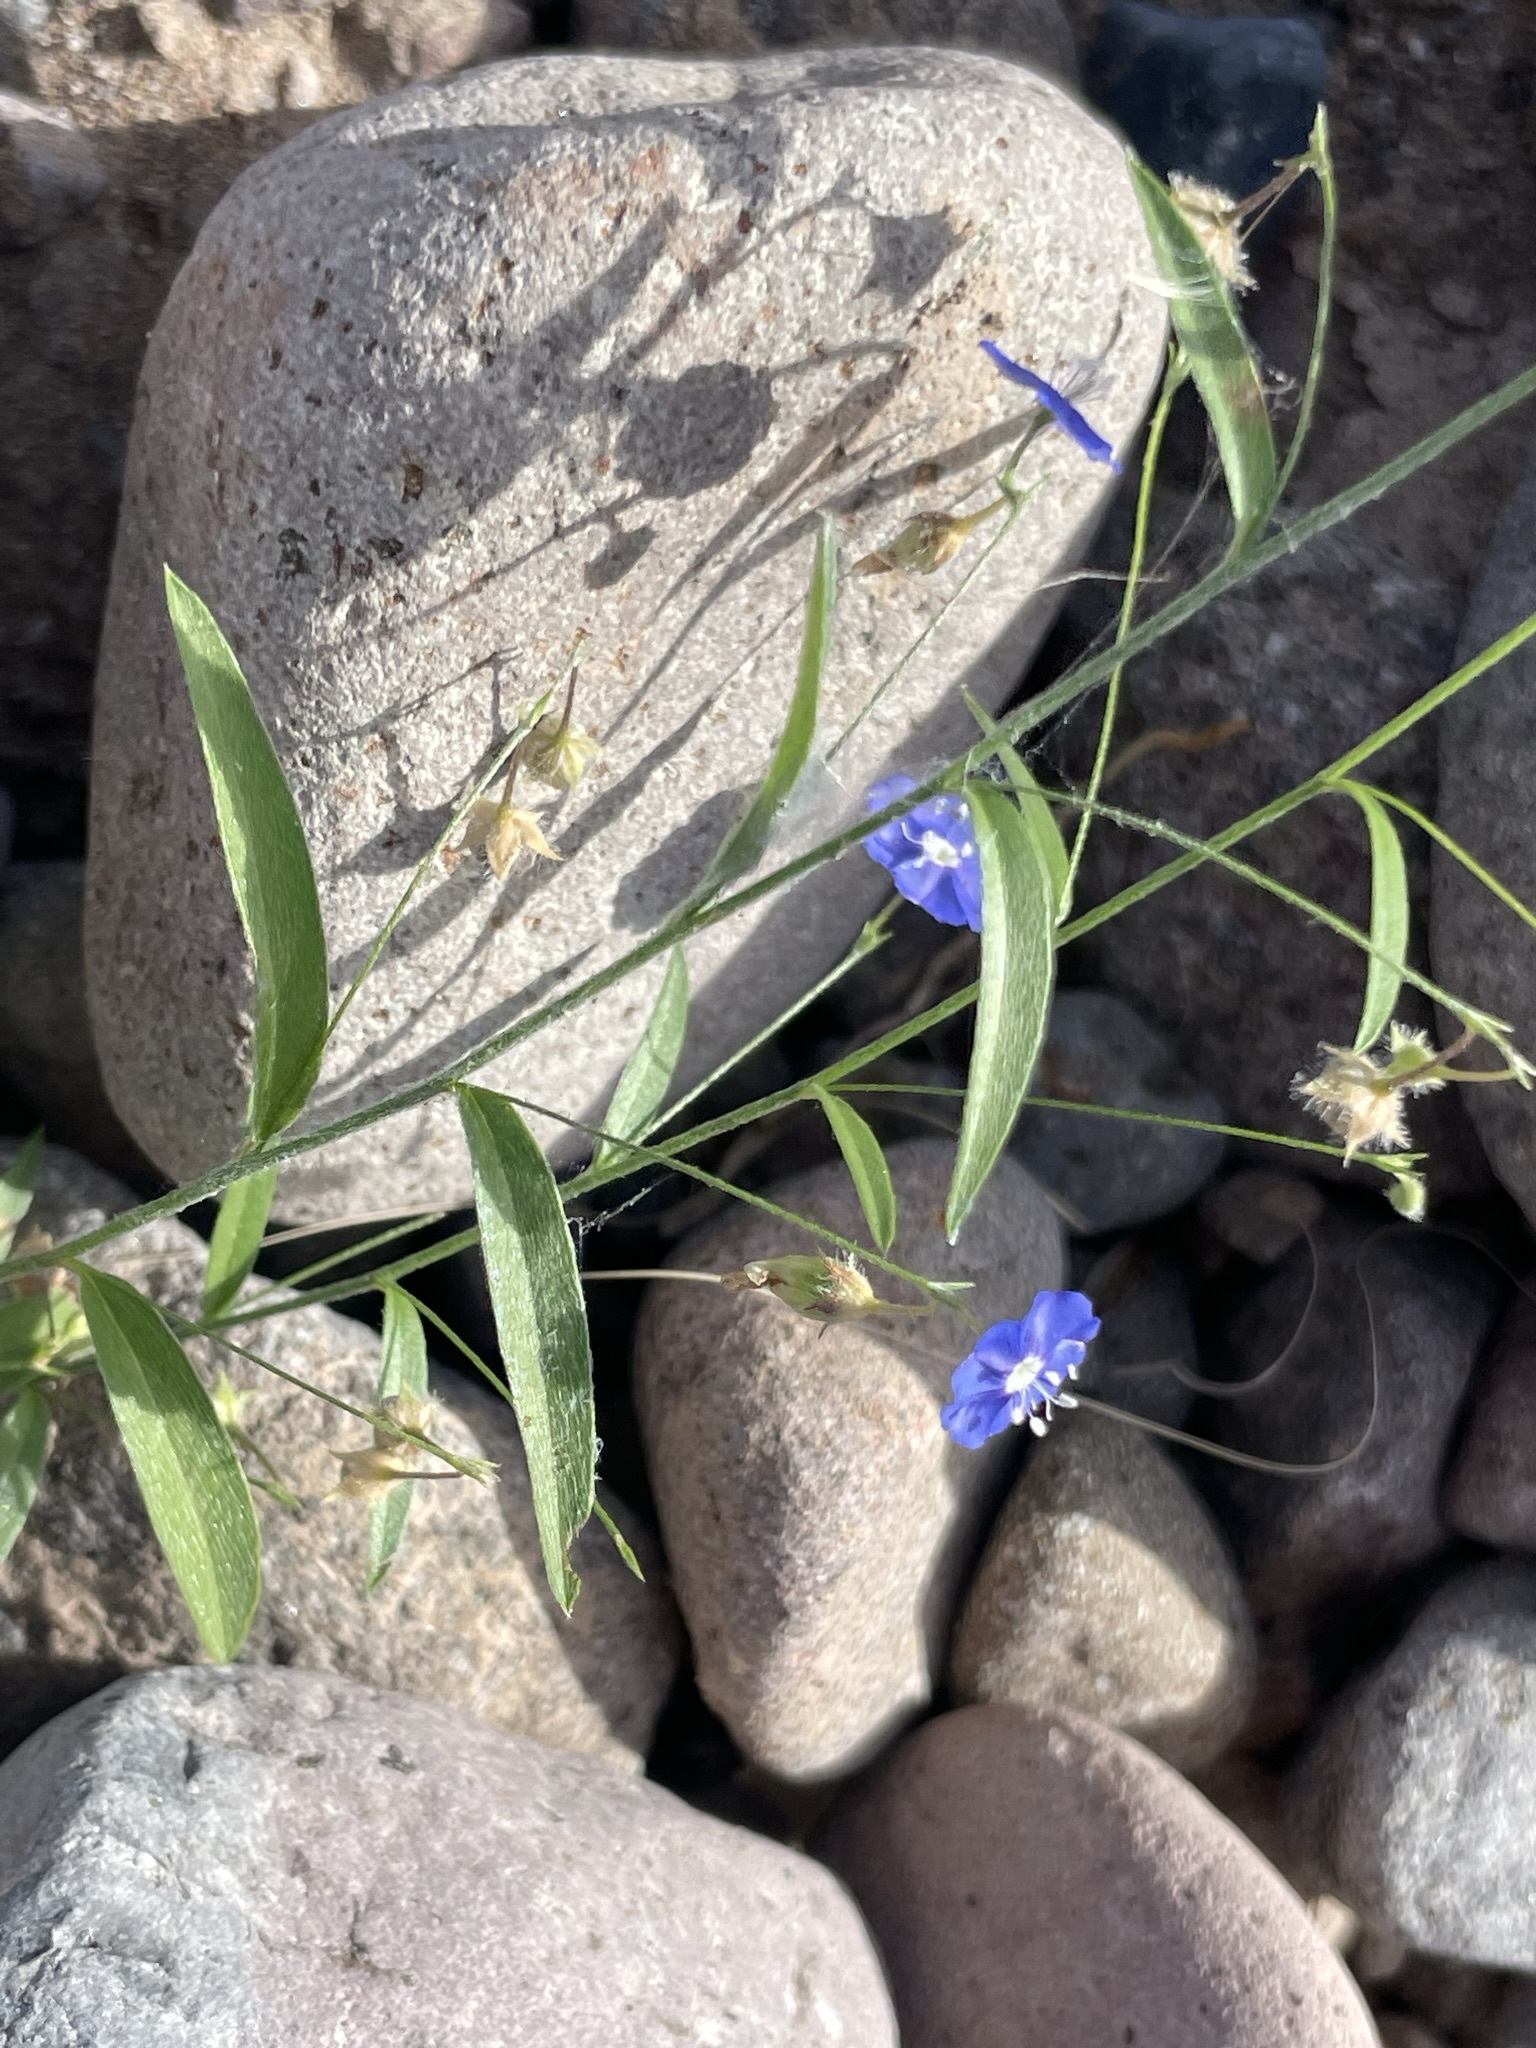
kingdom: Plantae
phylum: Tracheophyta
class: Magnoliopsida
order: Solanales
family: Convolvulaceae
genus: Evolvulus
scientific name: Evolvulus alsinoides
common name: Slender dwarf morning-glory
